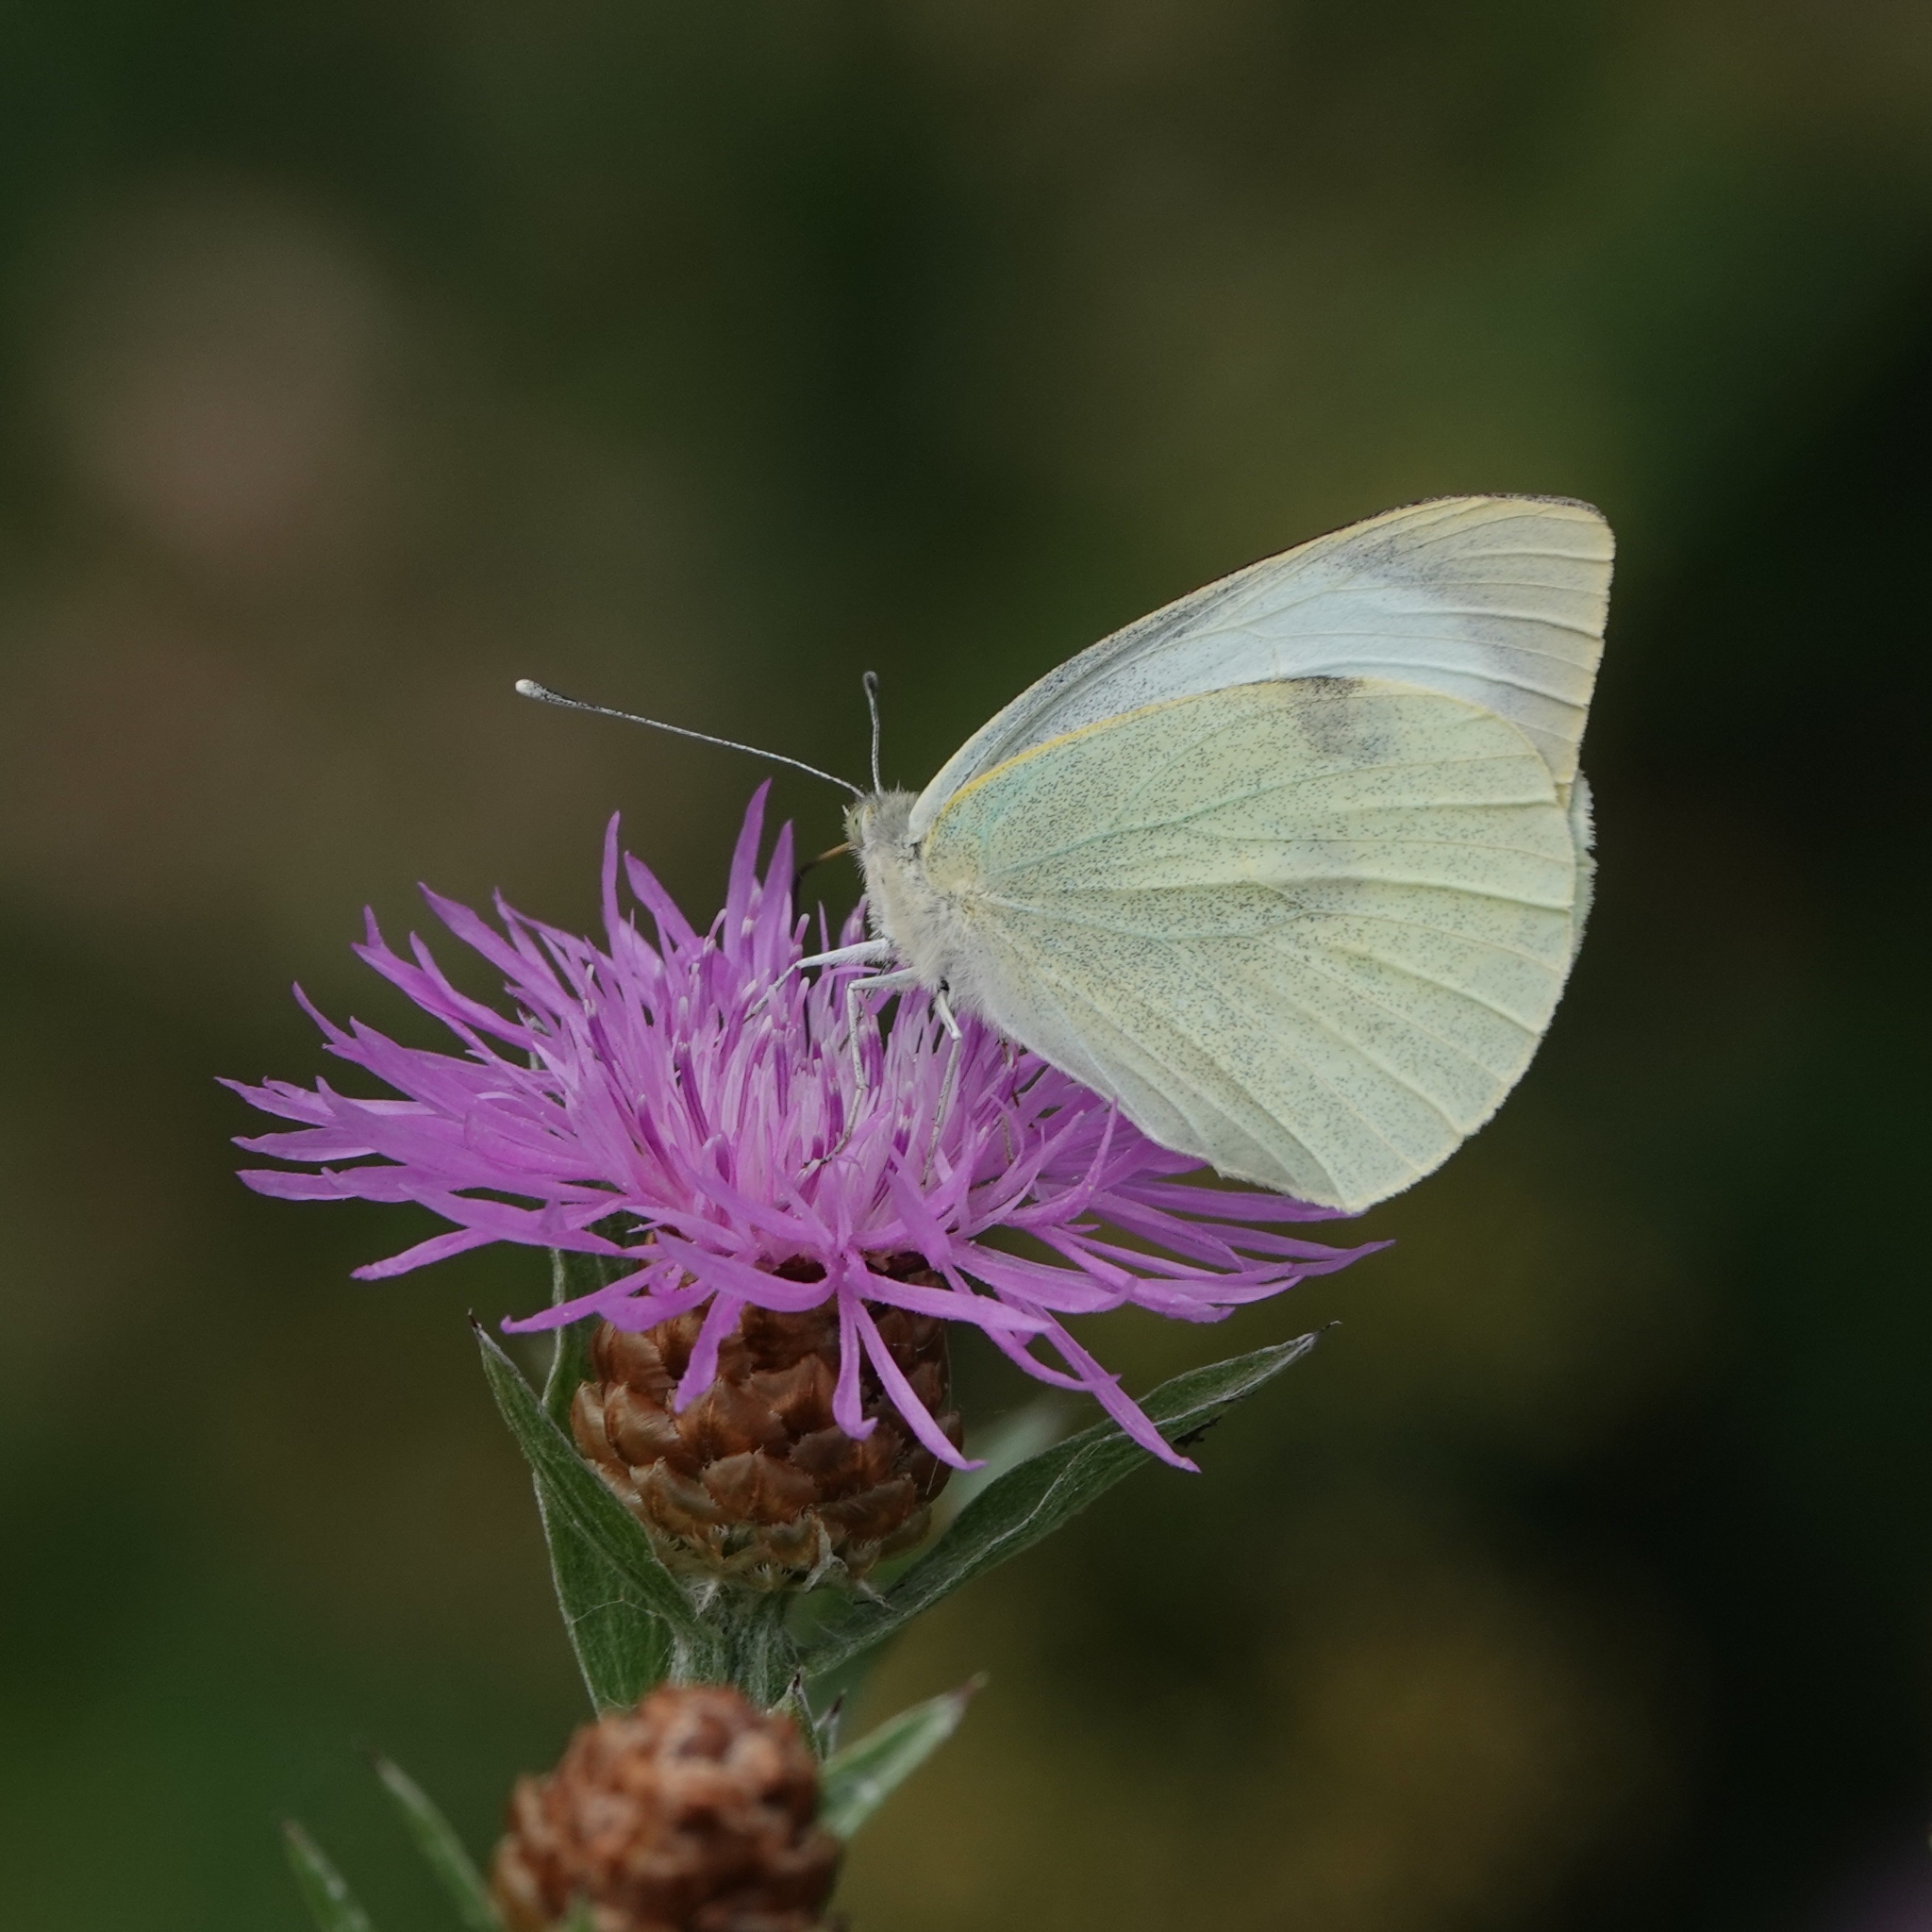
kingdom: Animalia
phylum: Arthropoda
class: Insecta
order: Lepidoptera
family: Pieridae
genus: Pieris
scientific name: Pieris brassicae
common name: Large white
